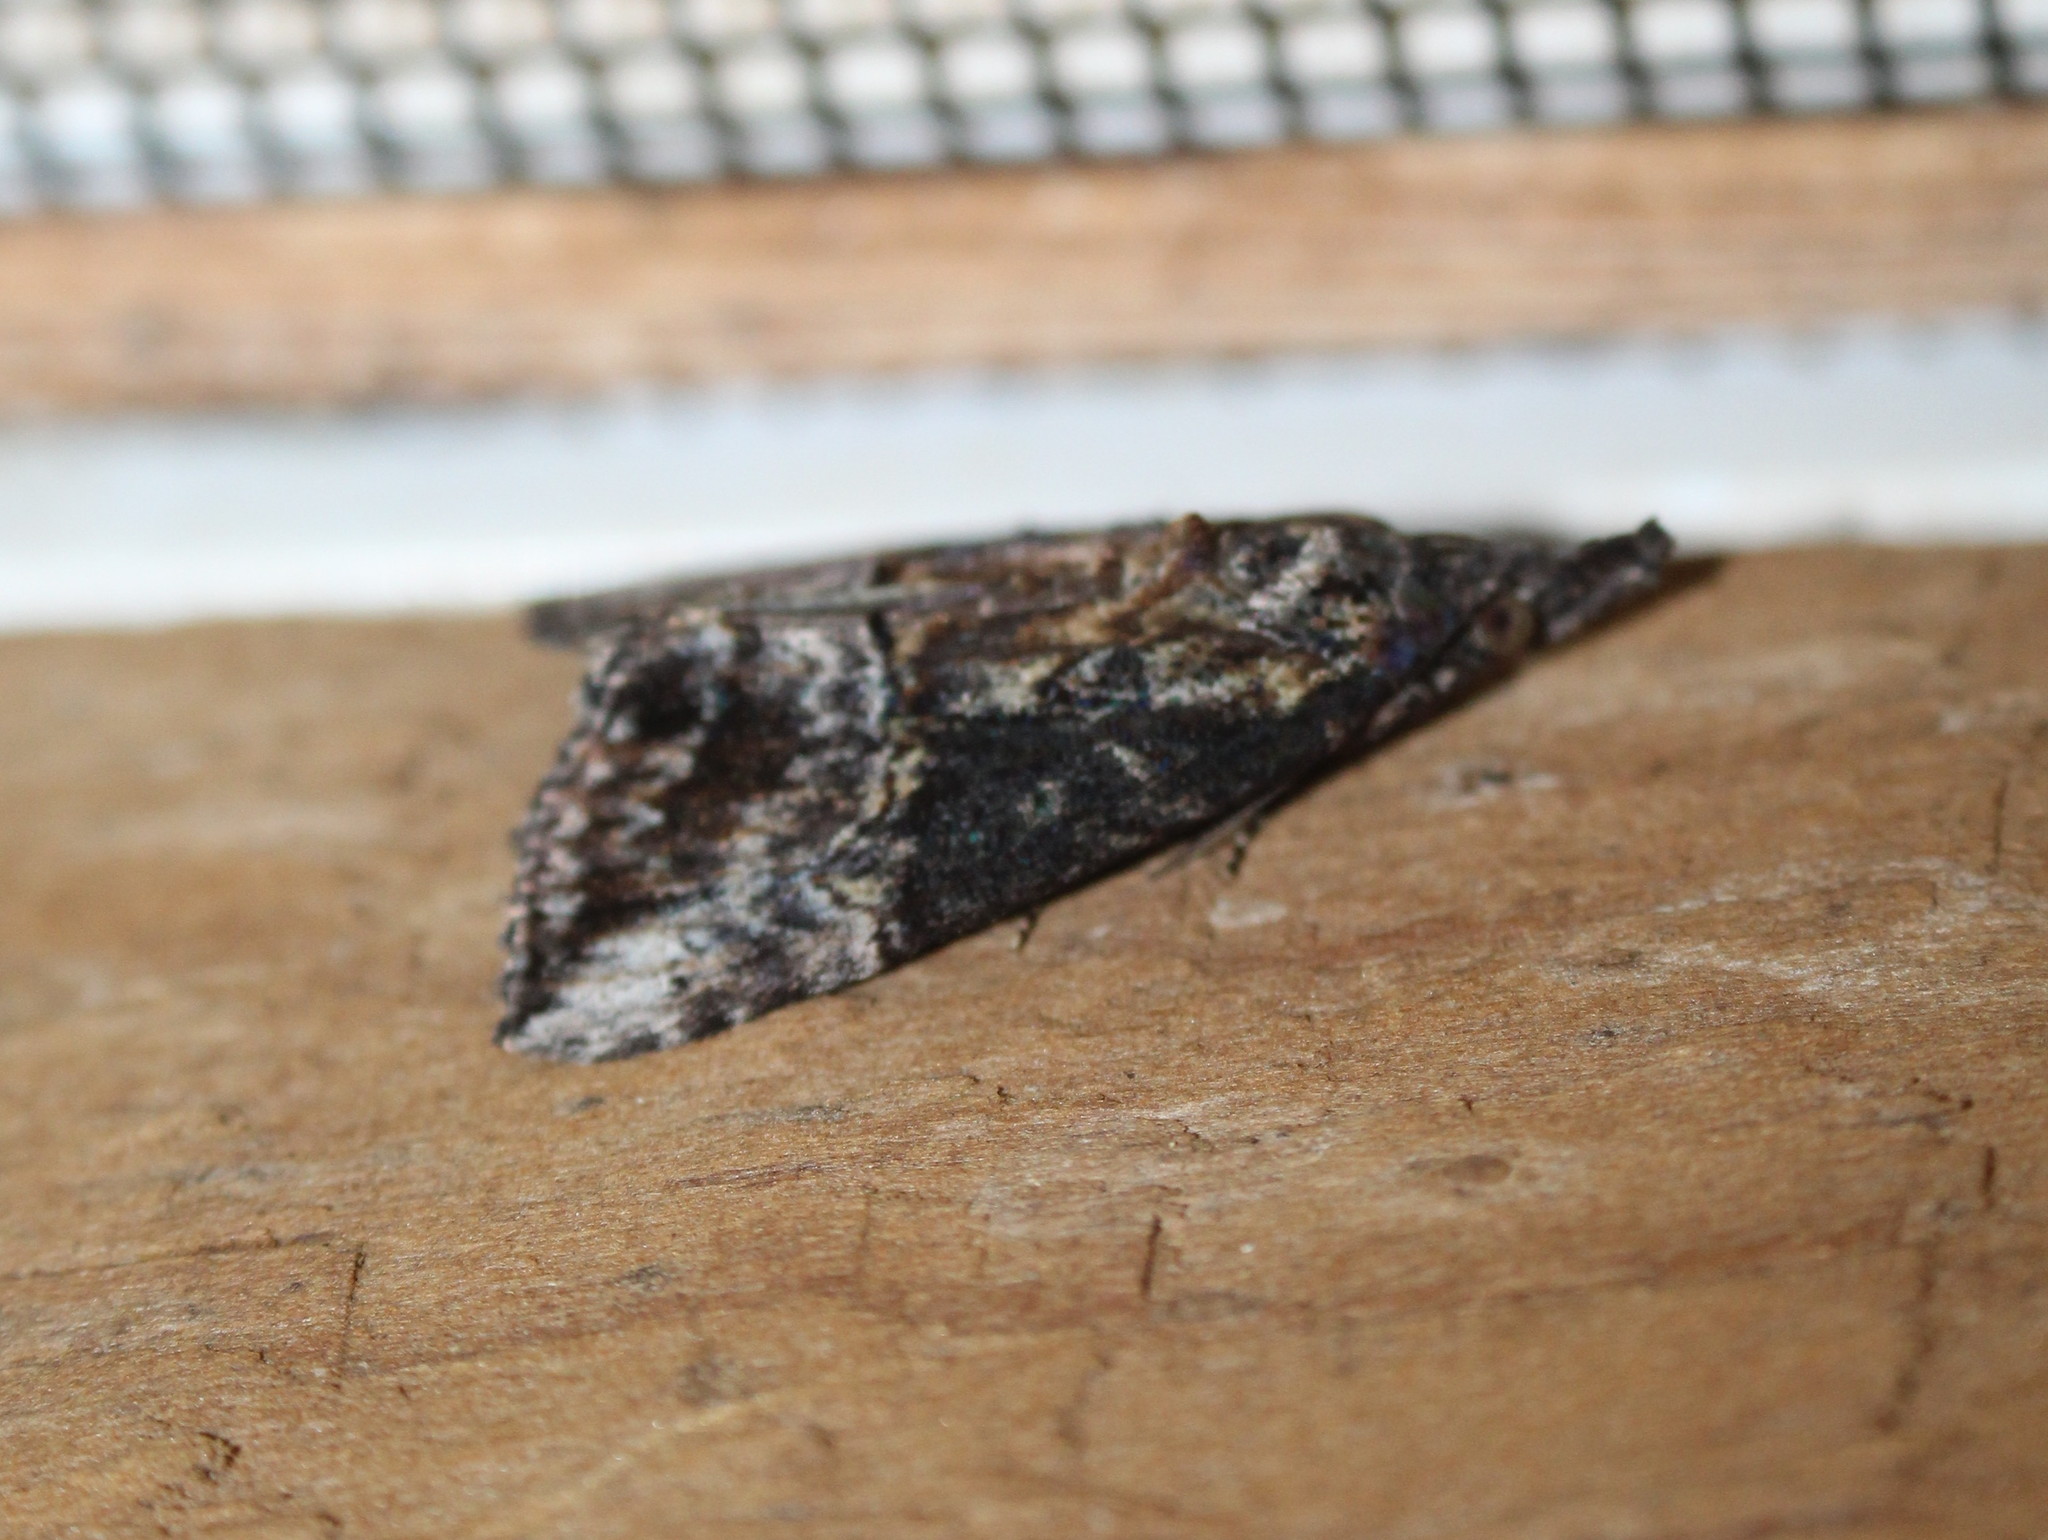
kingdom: Animalia
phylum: Arthropoda
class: Insecta
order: Lepidoptera
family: Erebidae
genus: Hypena
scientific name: Hypena scabra
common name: Green cloverworm
